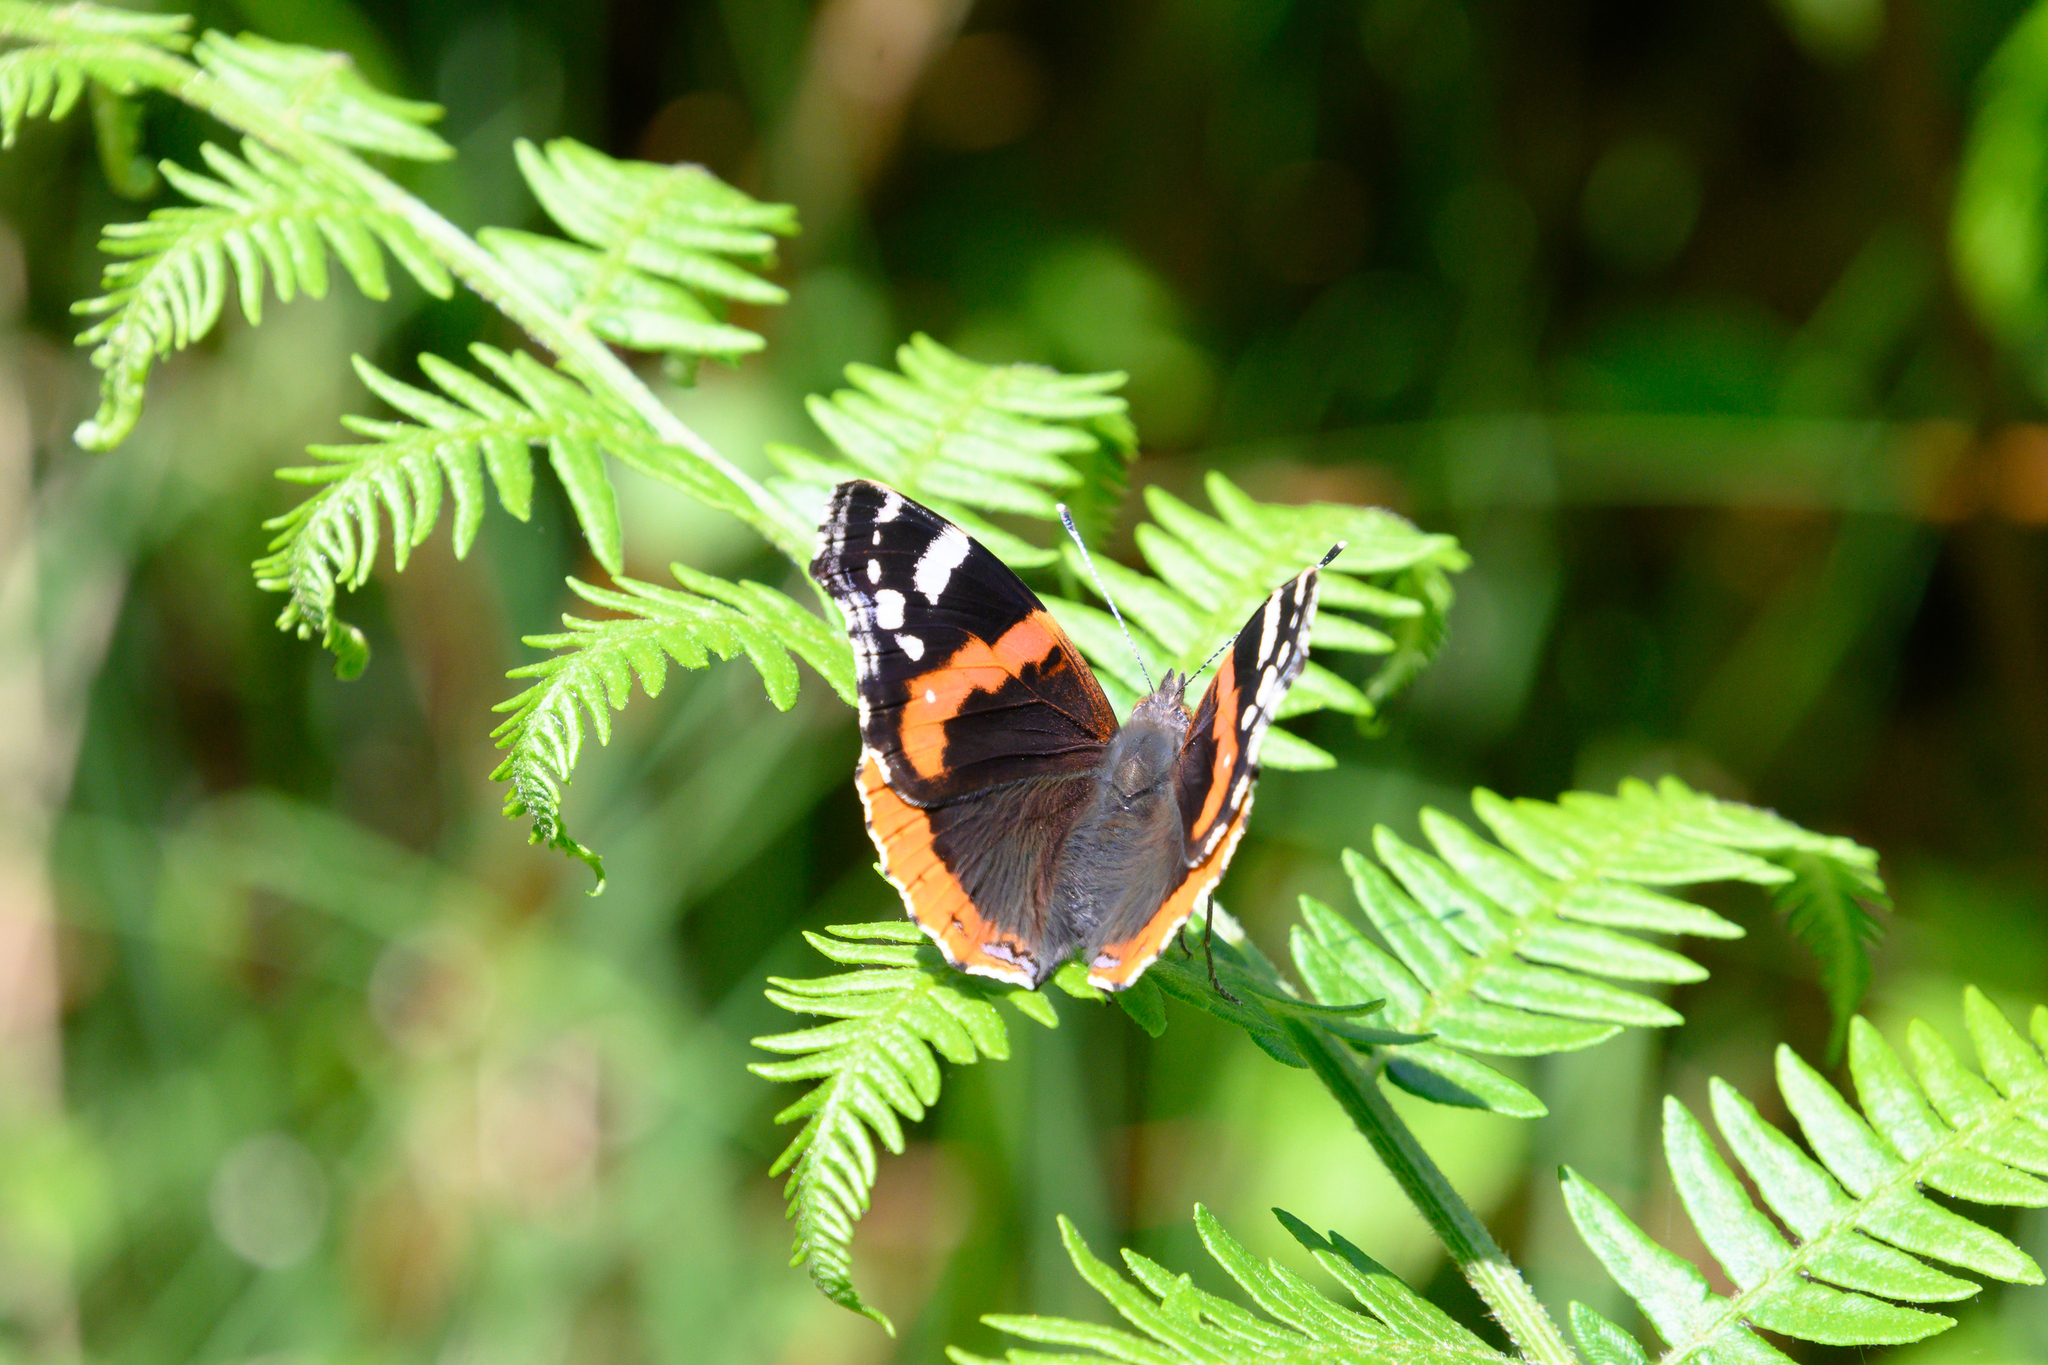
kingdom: Animalia
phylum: Arthropoda
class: Insecta
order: Lepidoptera
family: Nymphalidae
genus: Vanessa
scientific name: Vanessa atalanta
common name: Red admiral
